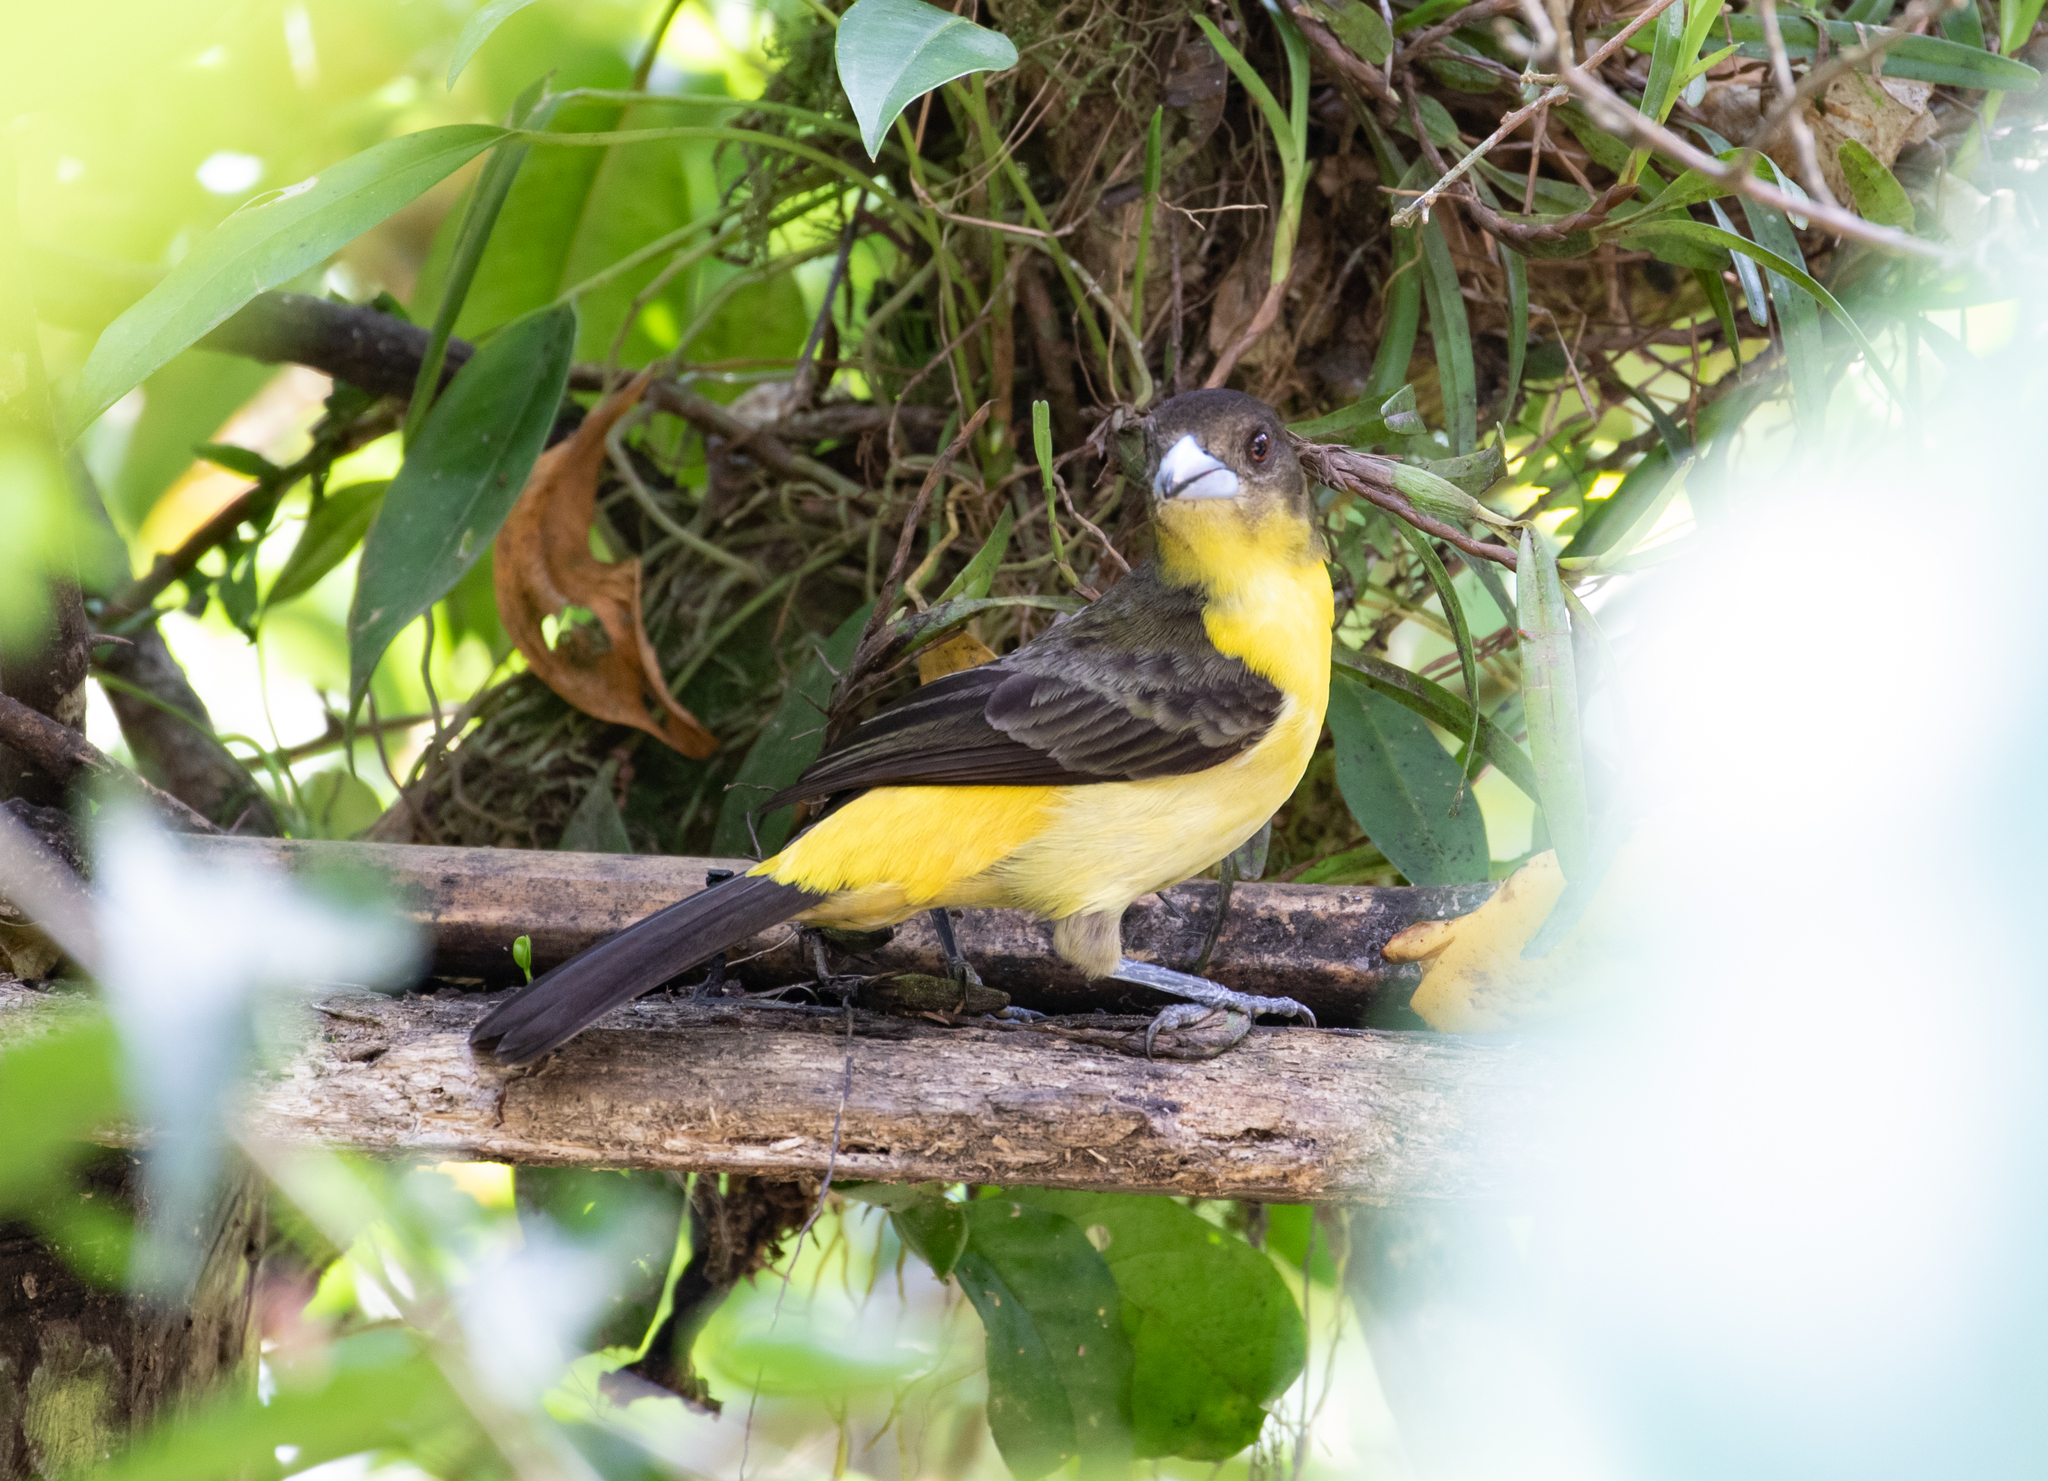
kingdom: Animalia
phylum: Chordata
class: Aves
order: Passeriformes
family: Thraupidae
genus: Ramphocelus
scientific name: Ramphocelus icteronotus
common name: Lemon-rumped tanager
